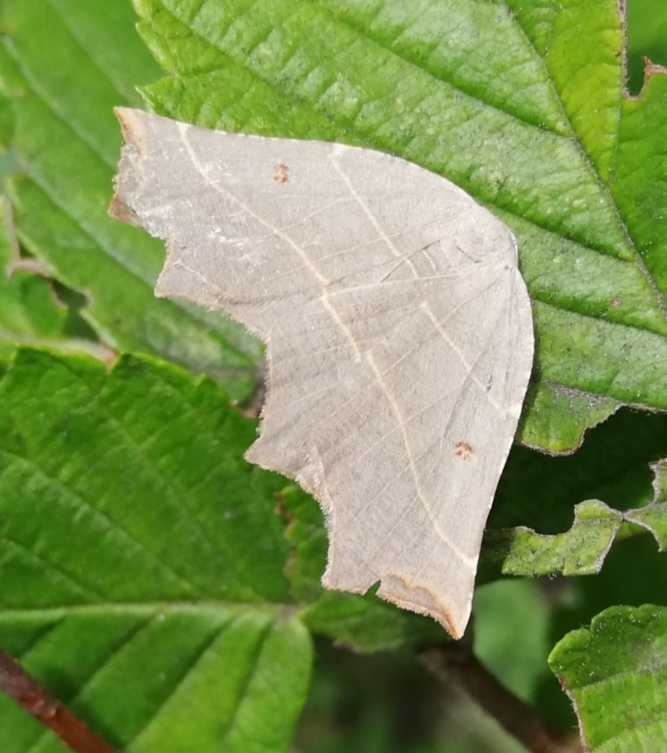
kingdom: Animalia
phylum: Arthropoda
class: Insecta
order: Lepidoptera
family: Geometridae
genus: Metanema
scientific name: Metanema inatomaria
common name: Pale metanema
